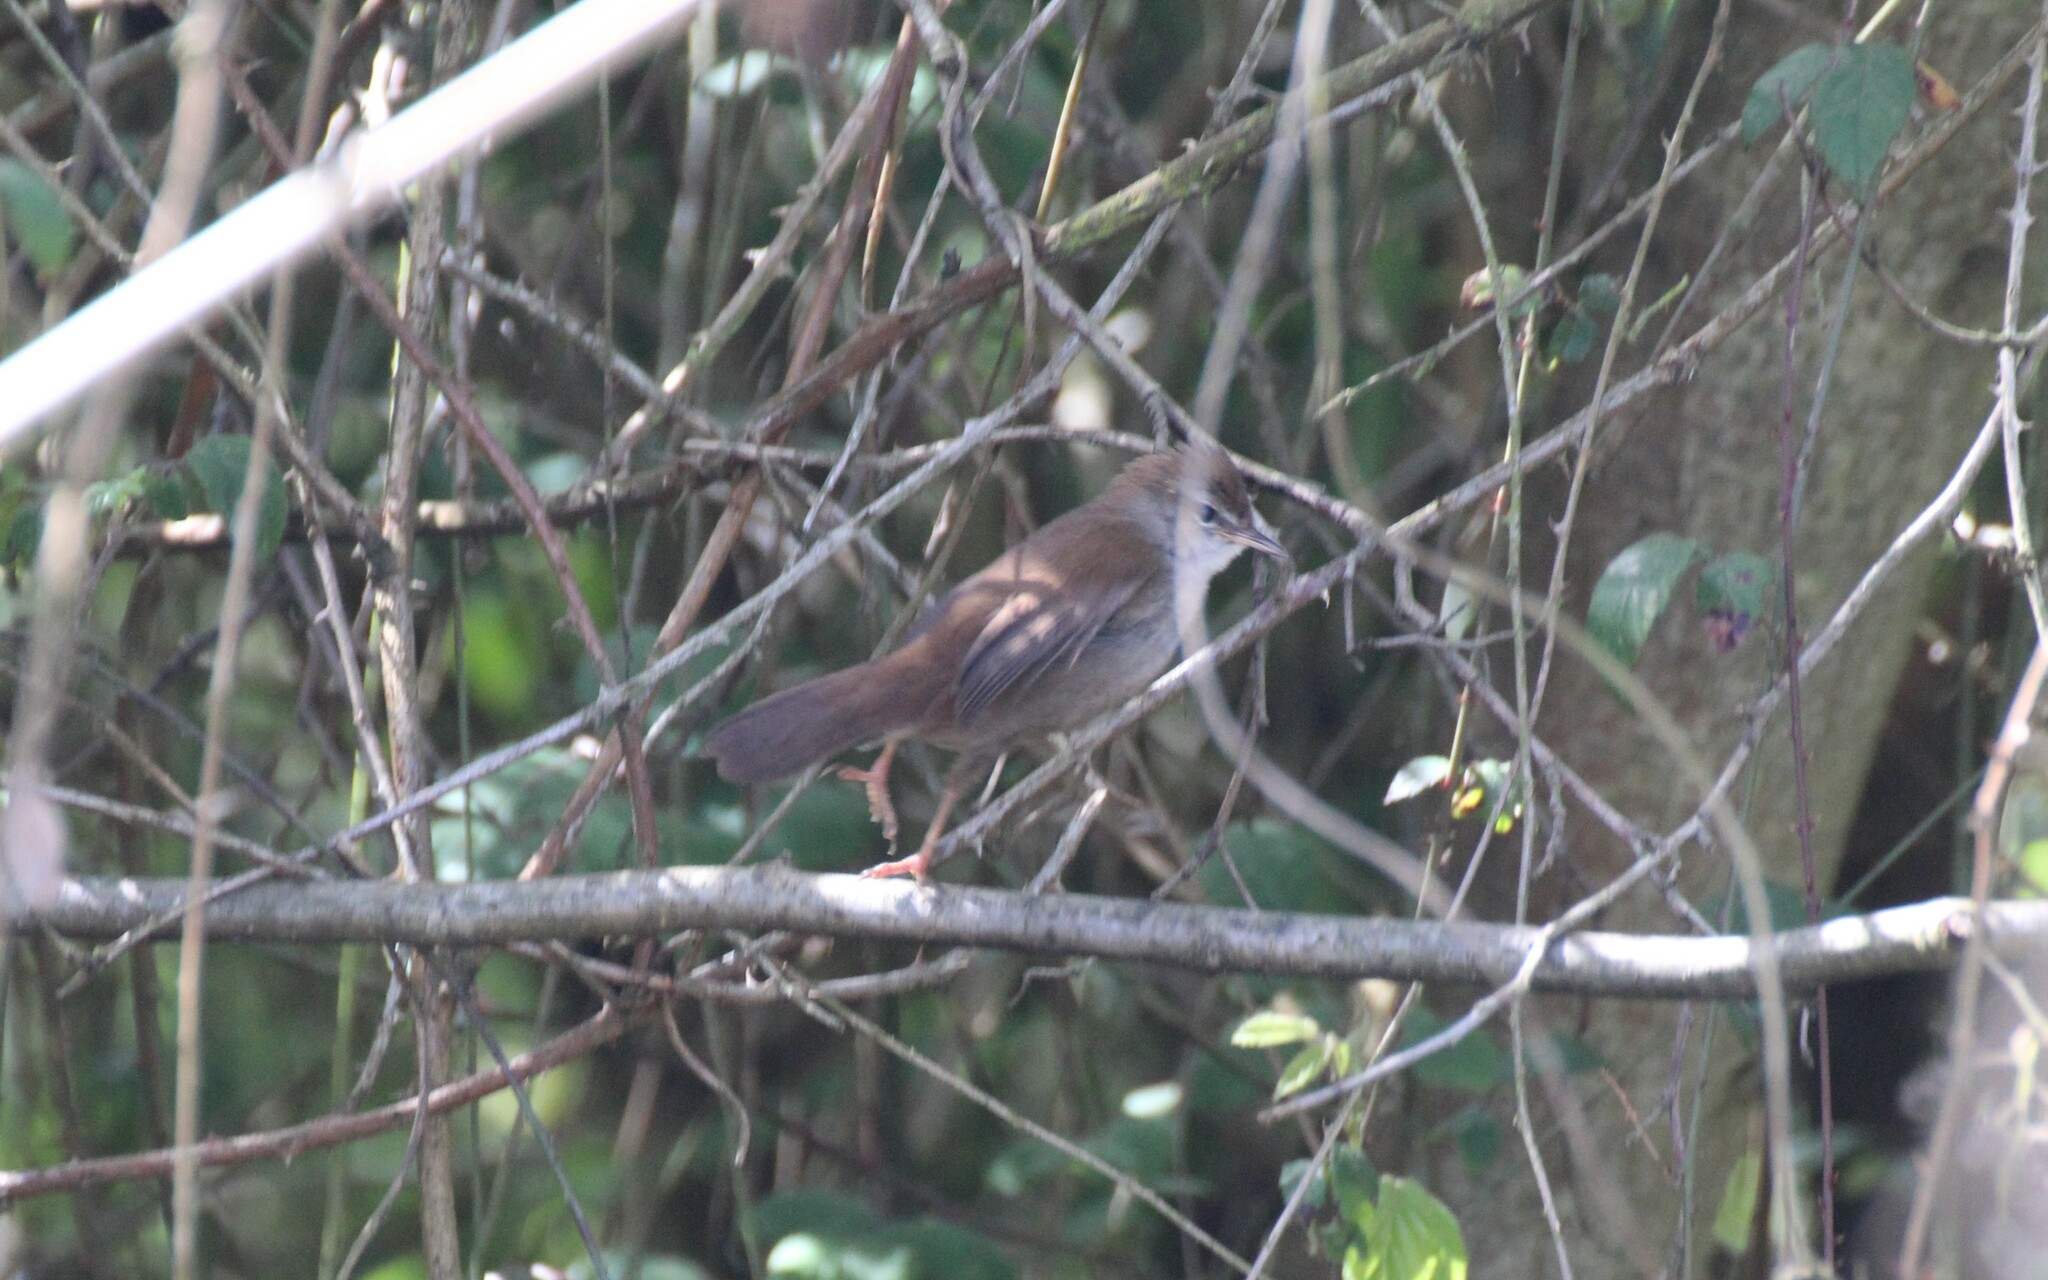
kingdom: Animalia
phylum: Chordata
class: Aves
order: Passeriformes
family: Cettiidae
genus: Cettia
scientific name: Cettia cetti
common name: Cetti's warbler
